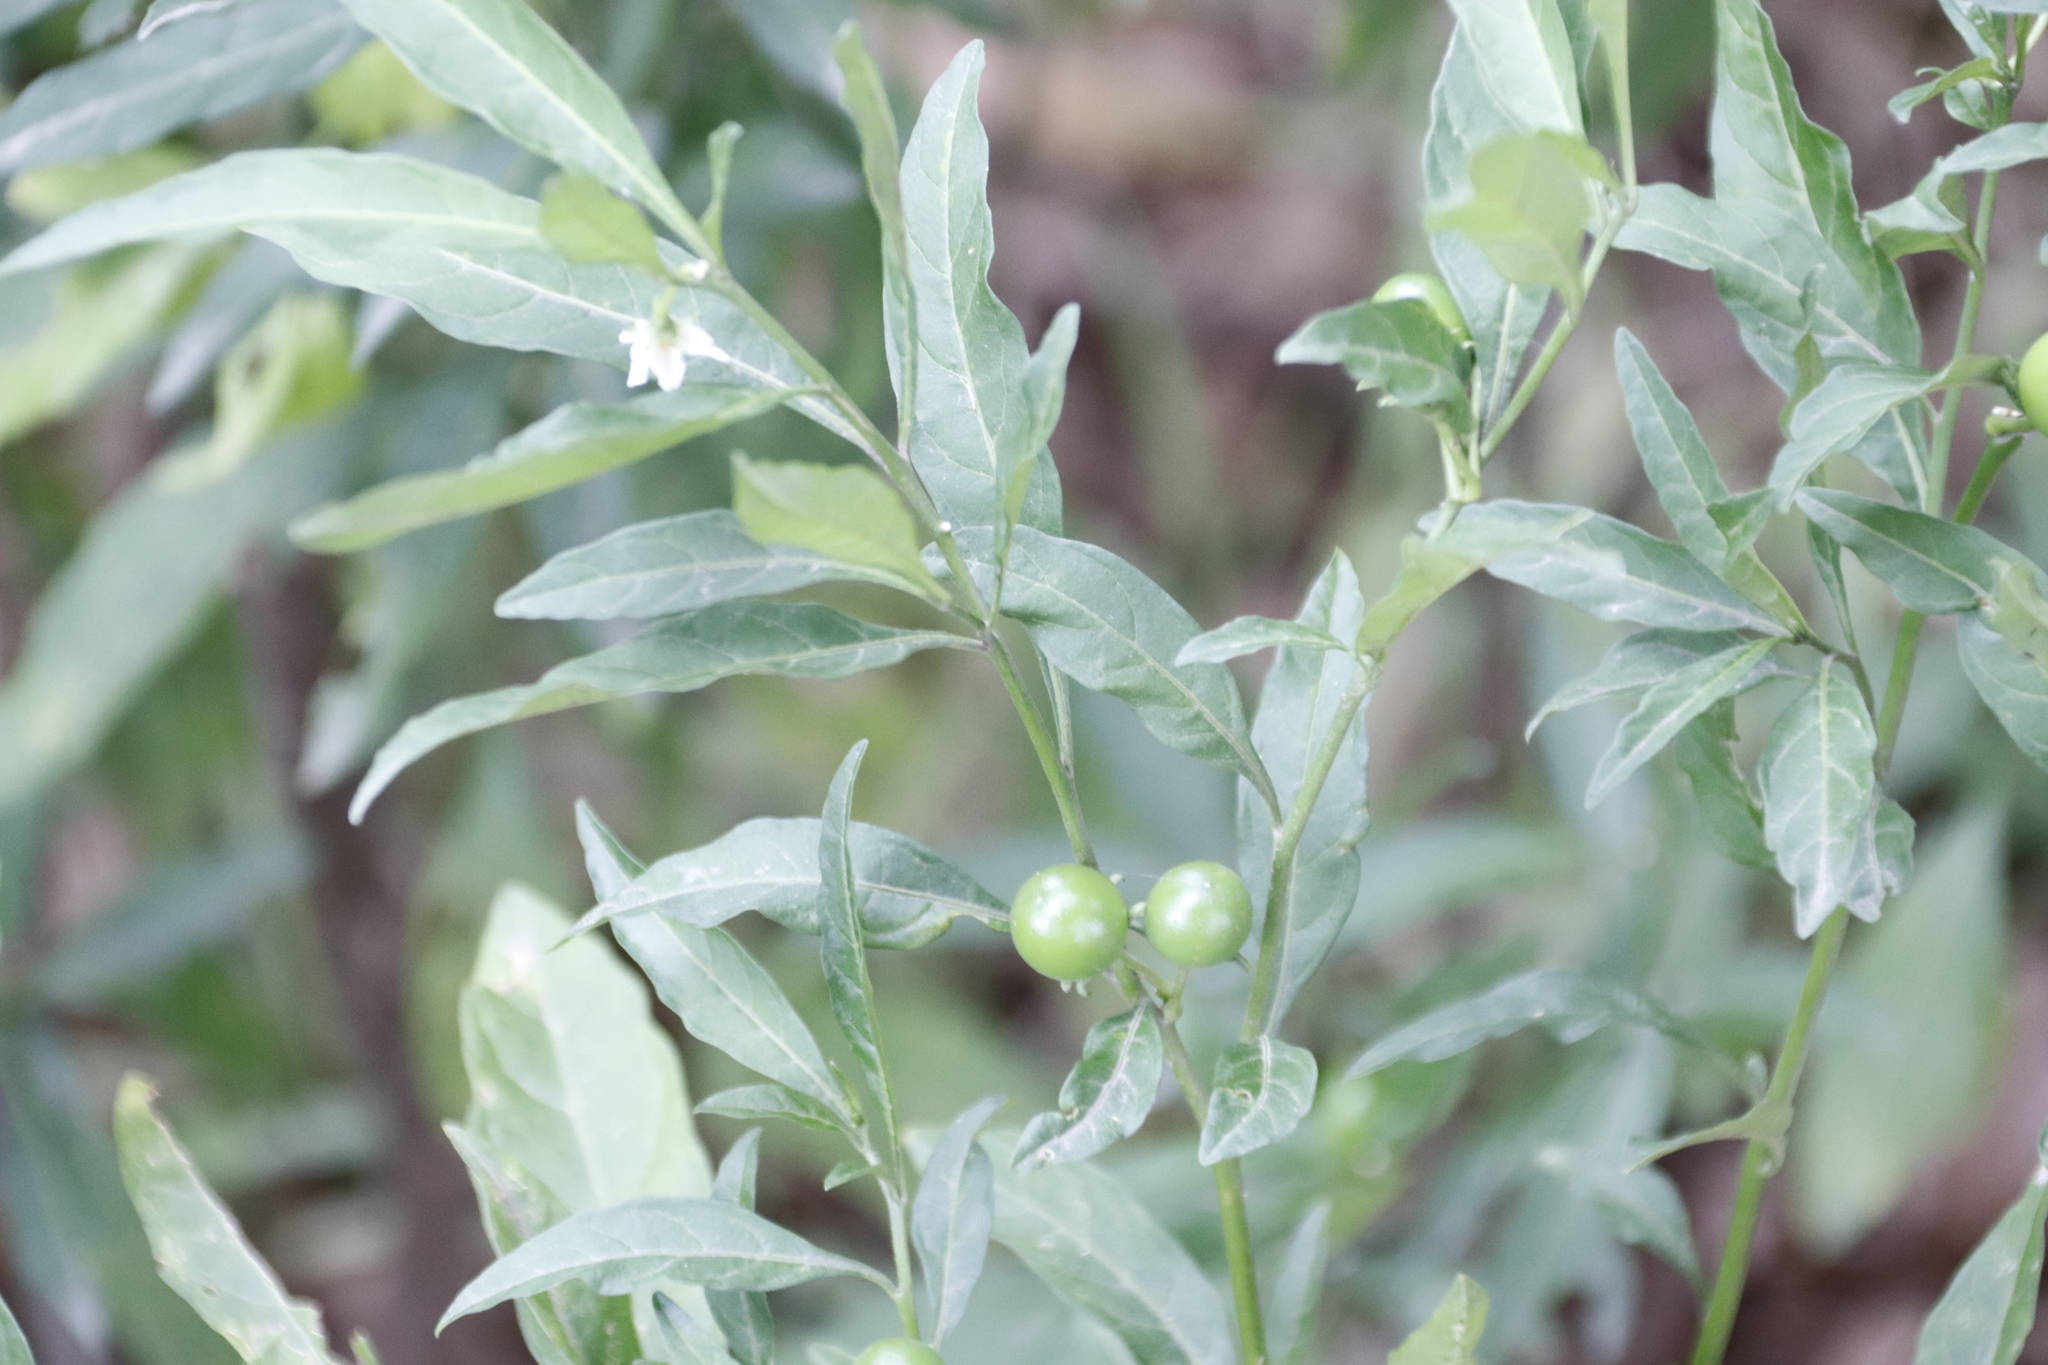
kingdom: Plantae
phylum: Tracheophyta
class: Magnoliopsida
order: Solanales
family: Solanaceae
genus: Solanum
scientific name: Solanum pseudocapsicum
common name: Jerusalem cherry
